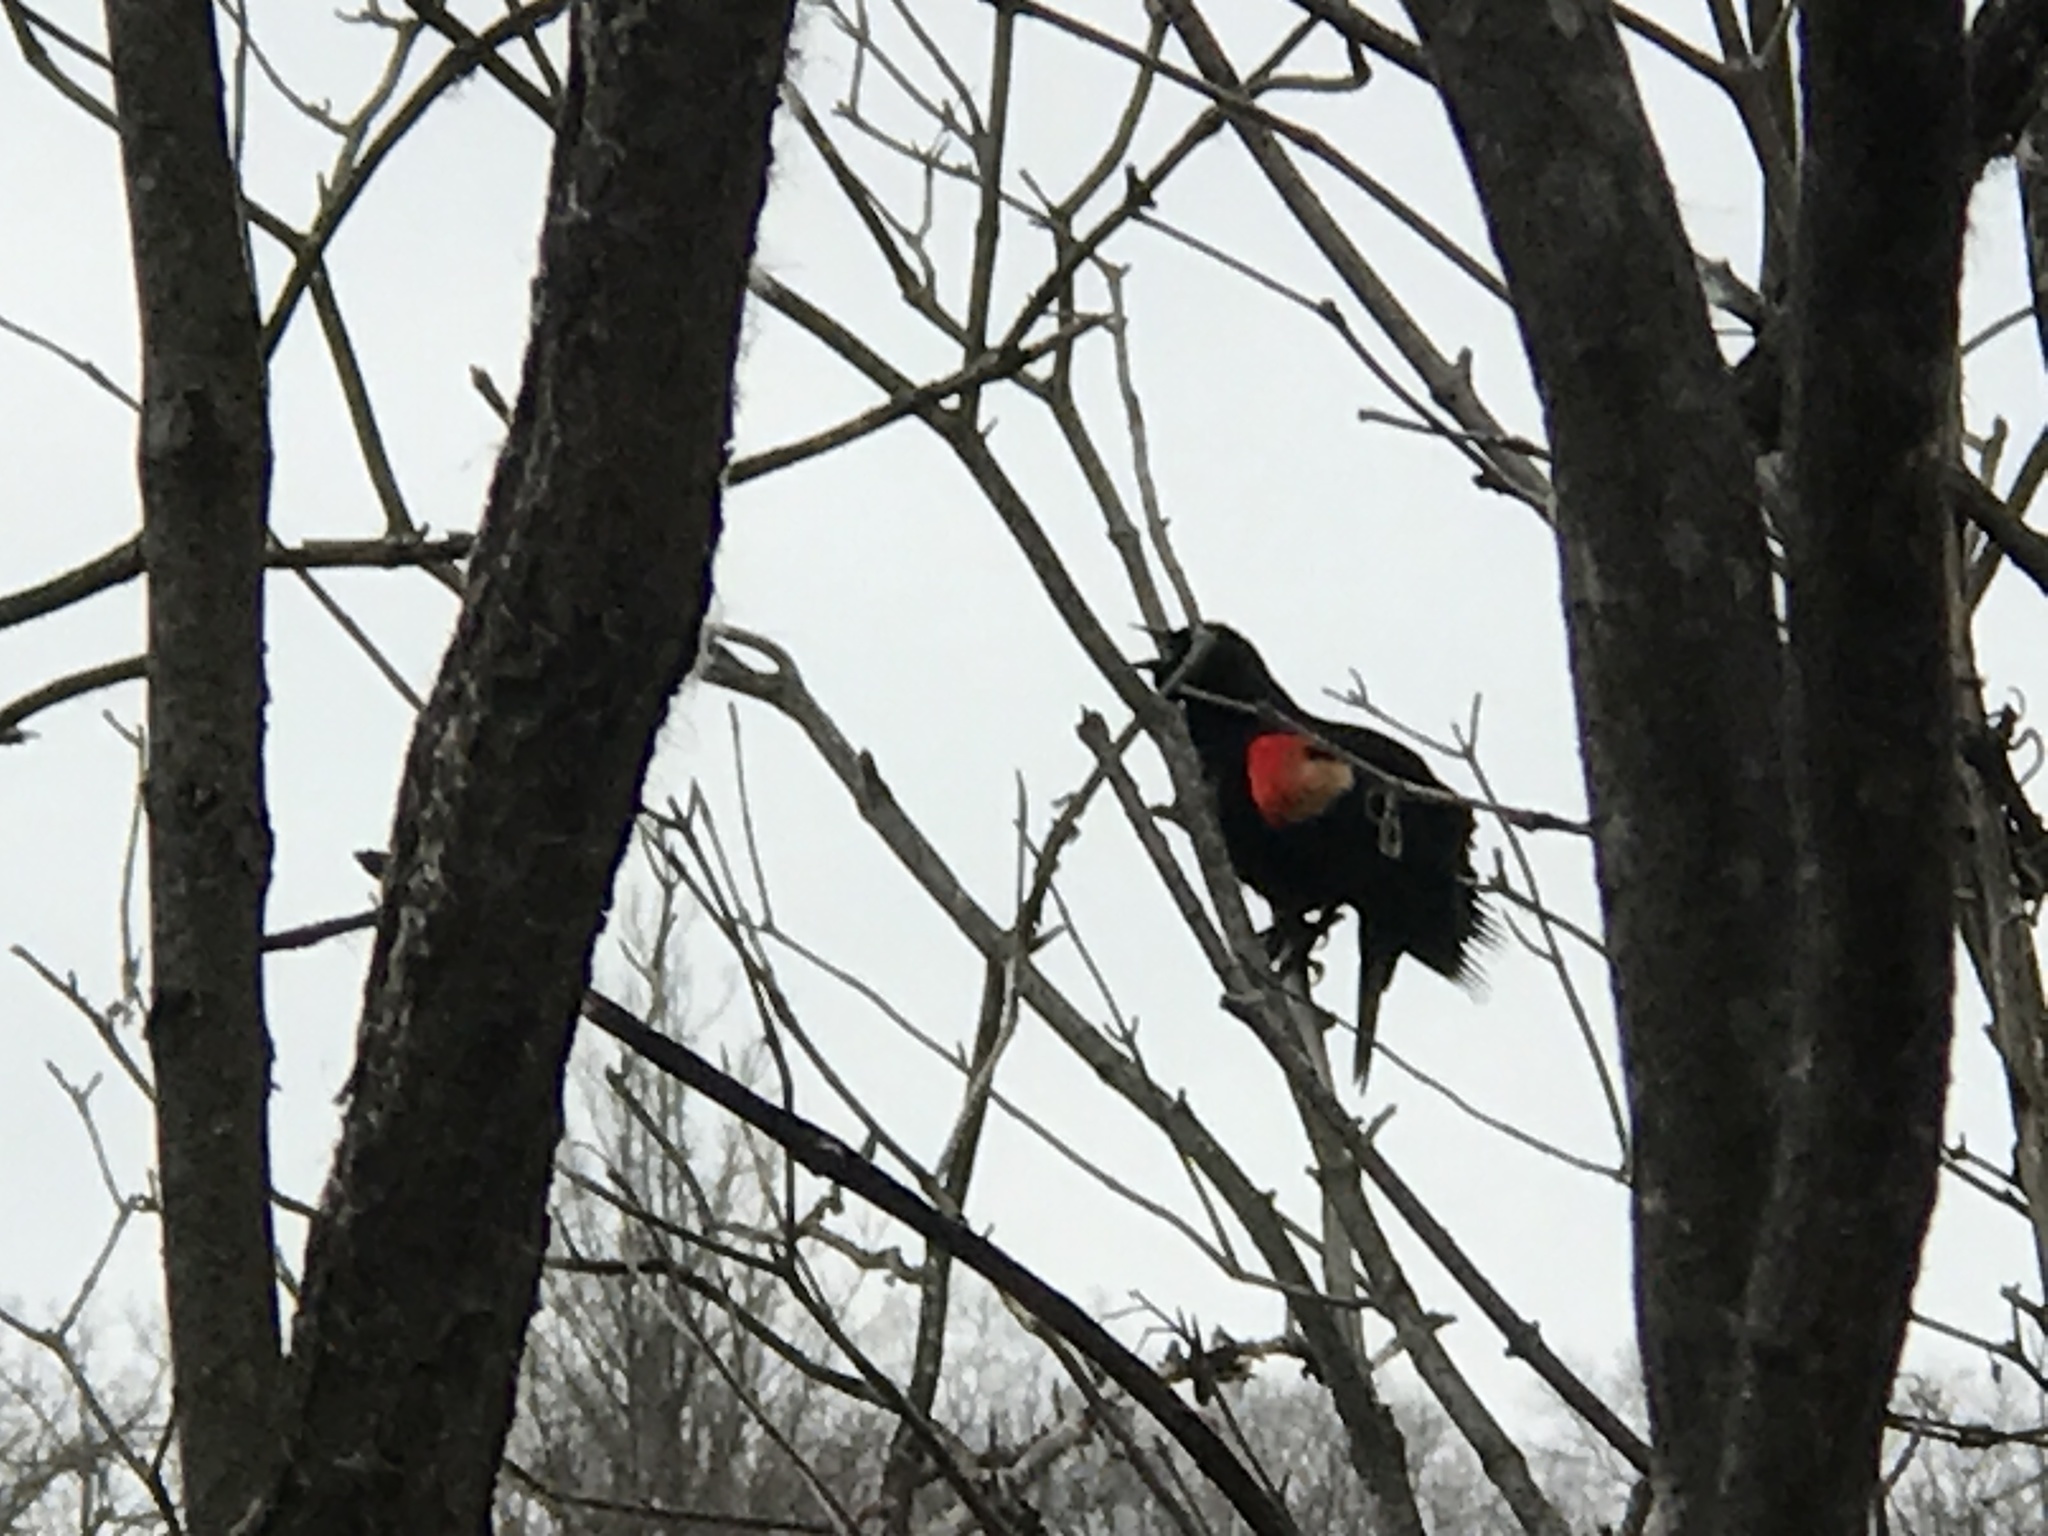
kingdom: Animalia
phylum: Chordata
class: Aves
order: Passeriformes
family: Icteridae
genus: Agelaius
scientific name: Agelaius phoeniceus
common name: Red-winged blackbird
